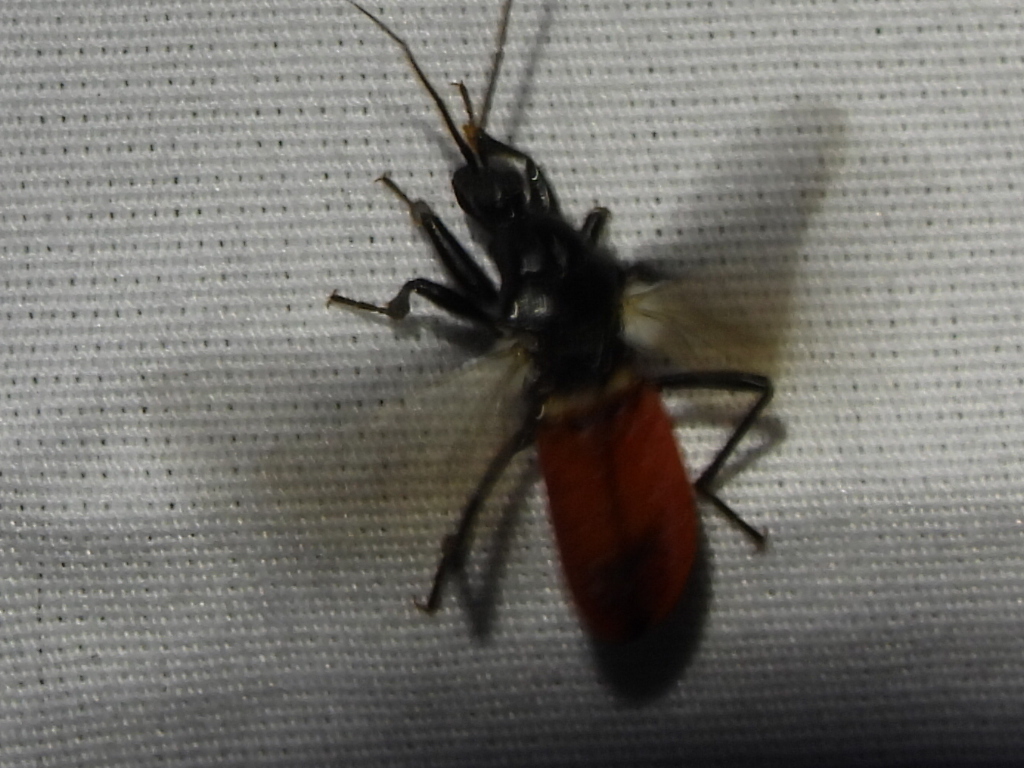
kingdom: Animalia
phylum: Arthropoda
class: Insecta
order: Hemiptera
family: Reduviidae
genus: Melanolestes
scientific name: Melanolestes picipes
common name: Assassin bug
